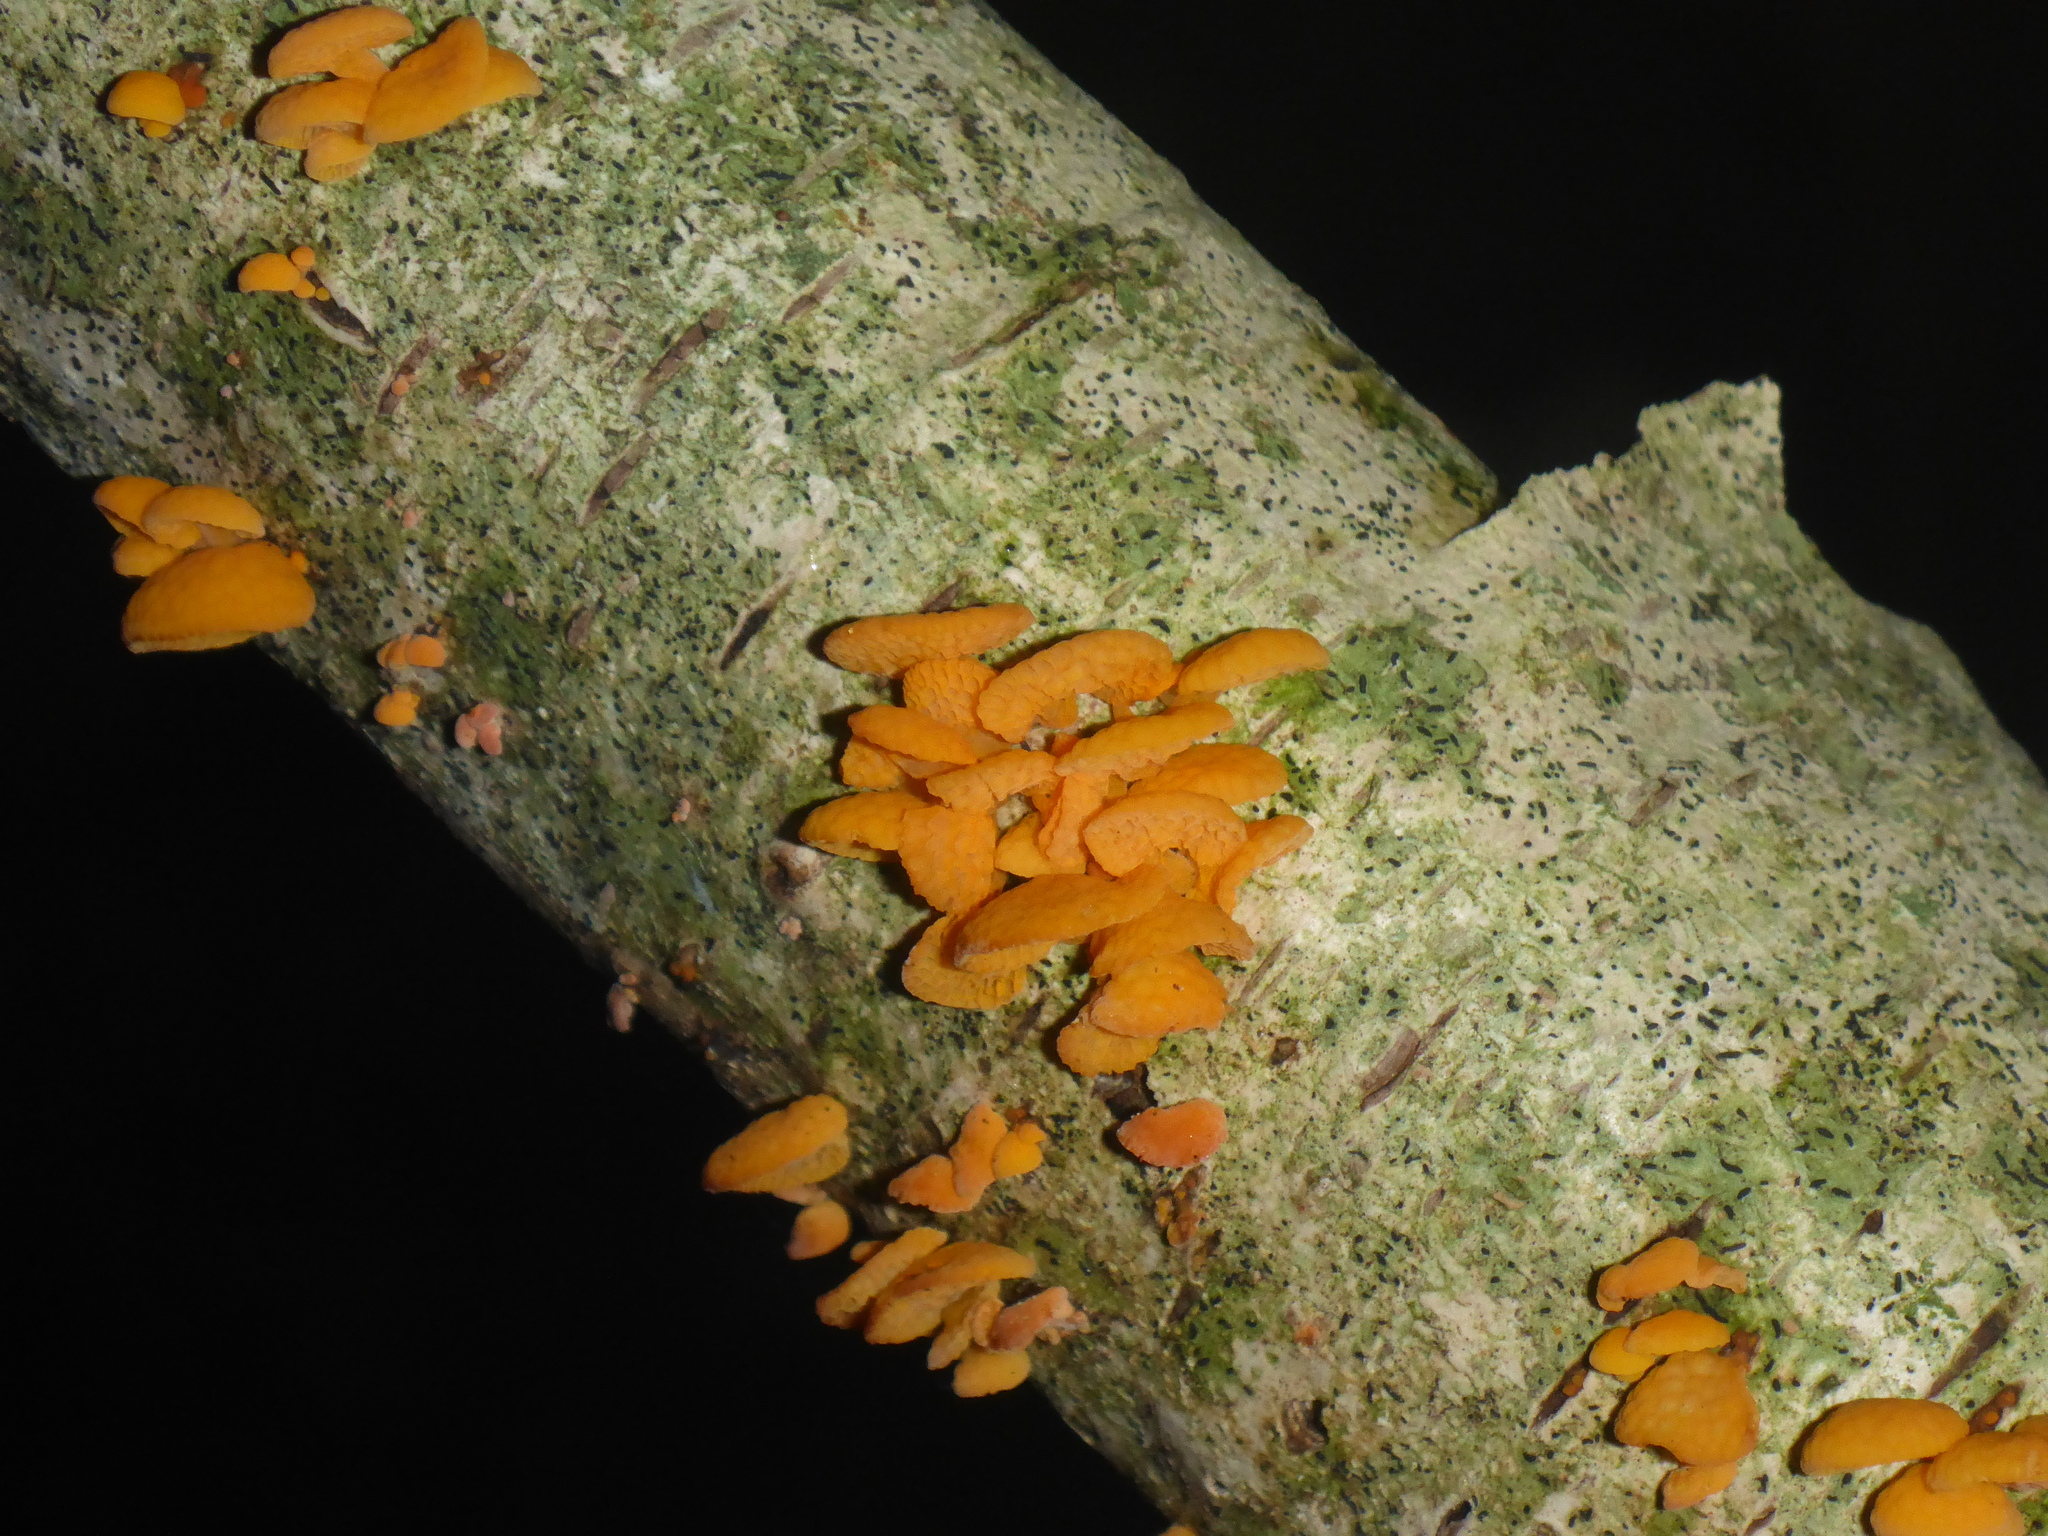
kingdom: Fungi
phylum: Basidiomycota
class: Agaricomycetes
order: Agaricales
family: Mycenaceae
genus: Favolaschia
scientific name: Favolaschia claudopus
